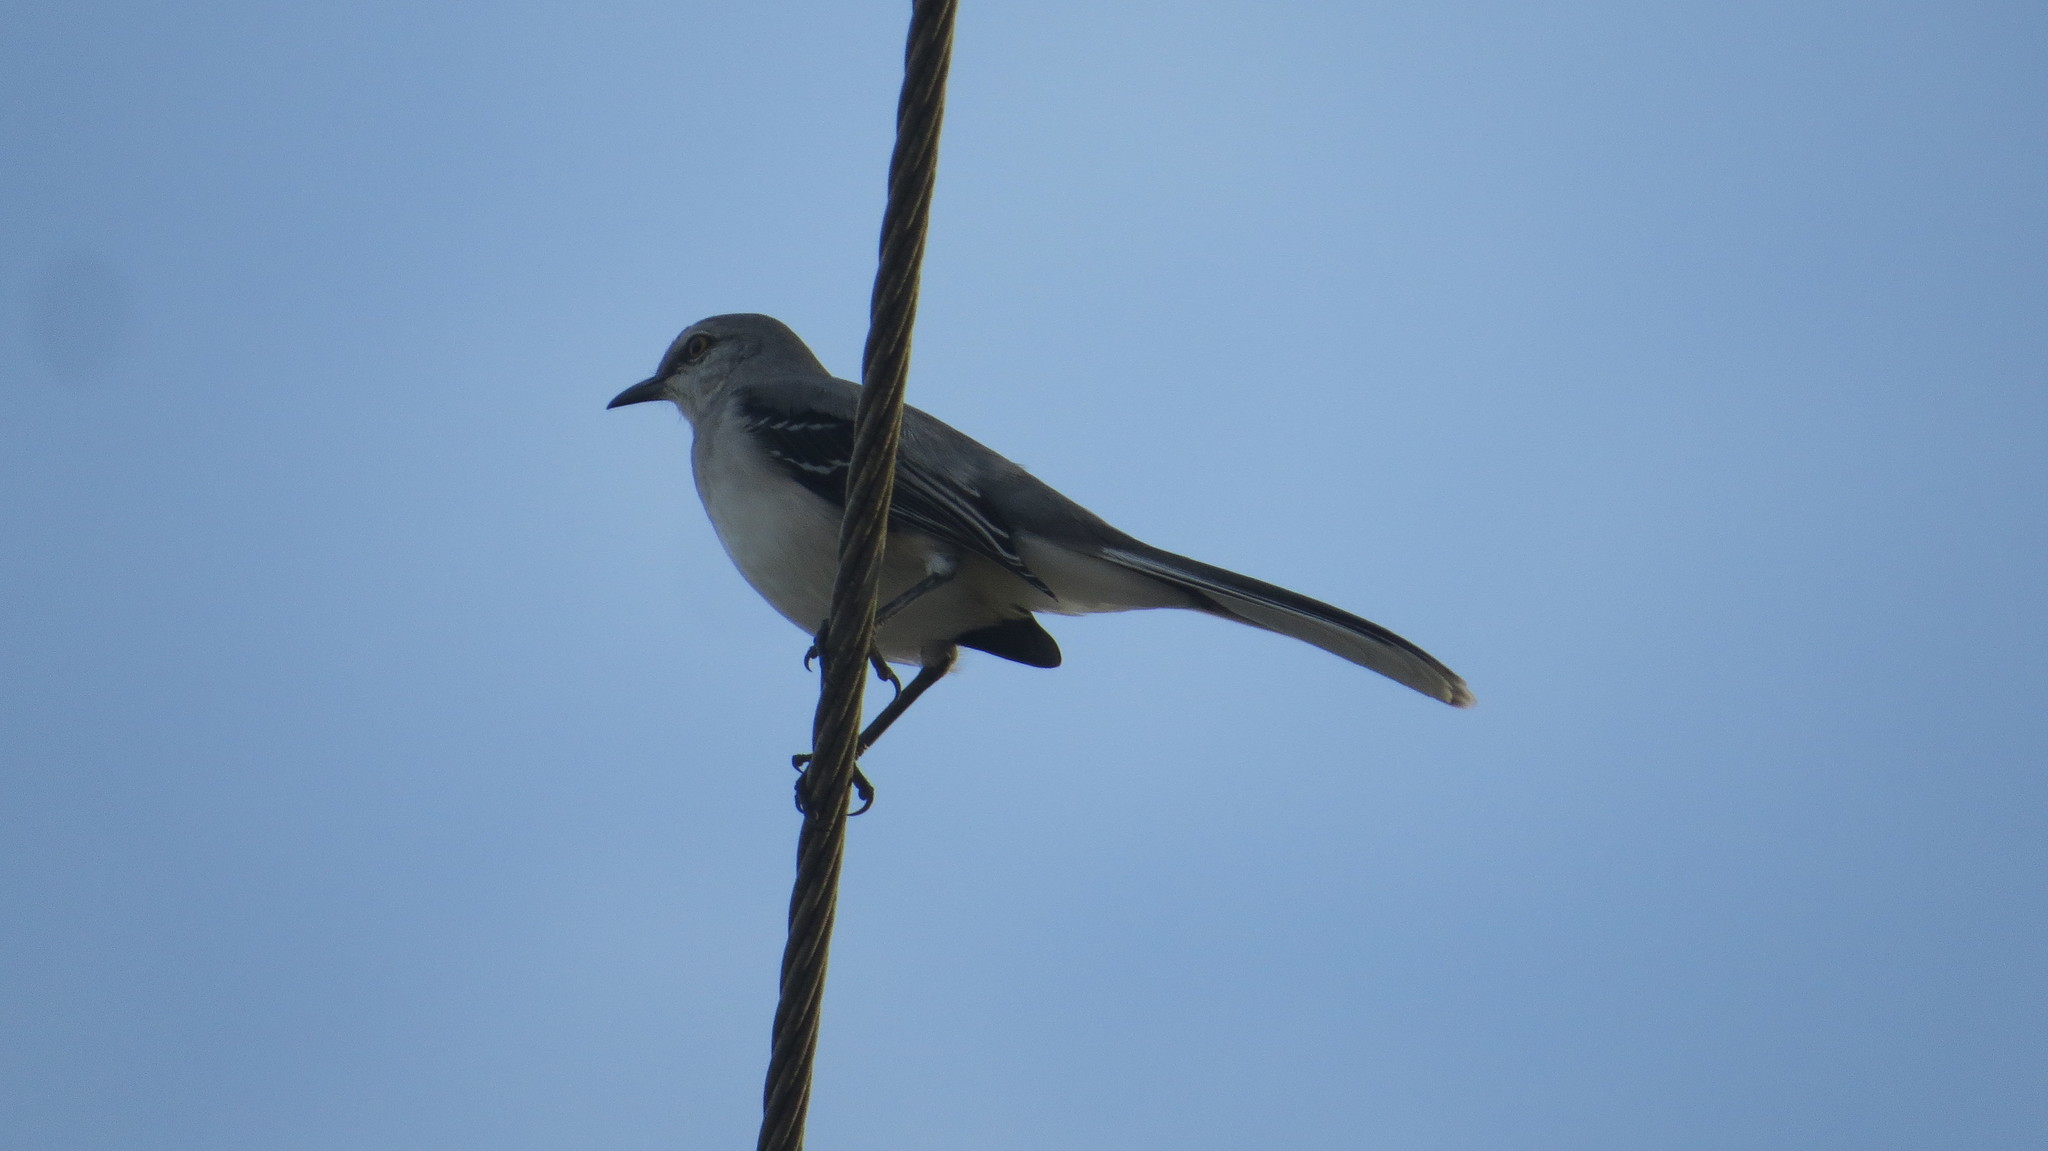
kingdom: Animalia
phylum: Chordata
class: Aves
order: Passeriformes
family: Mimidae
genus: Mimus
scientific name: Mimus gilvus
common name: Tropical mockingbird
